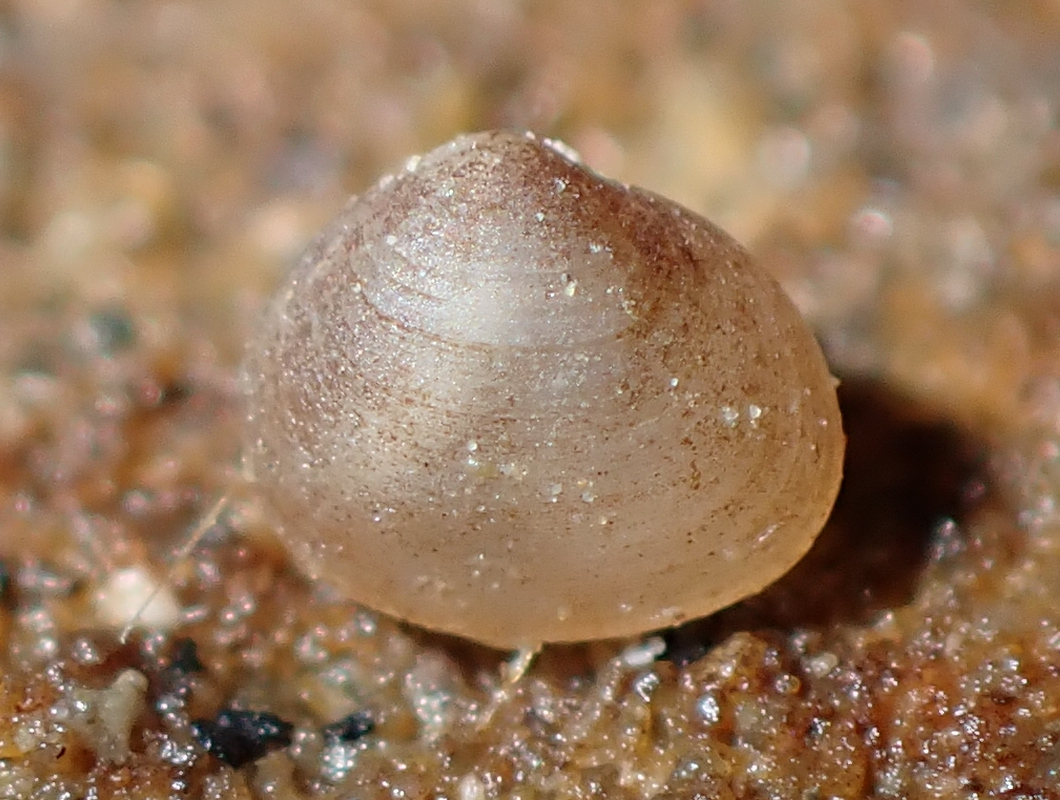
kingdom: Animalia
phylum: Mollusca
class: Bivalvia
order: Galeommatida
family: Lasaeidae
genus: Lasaea
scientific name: Lasaea maoria
